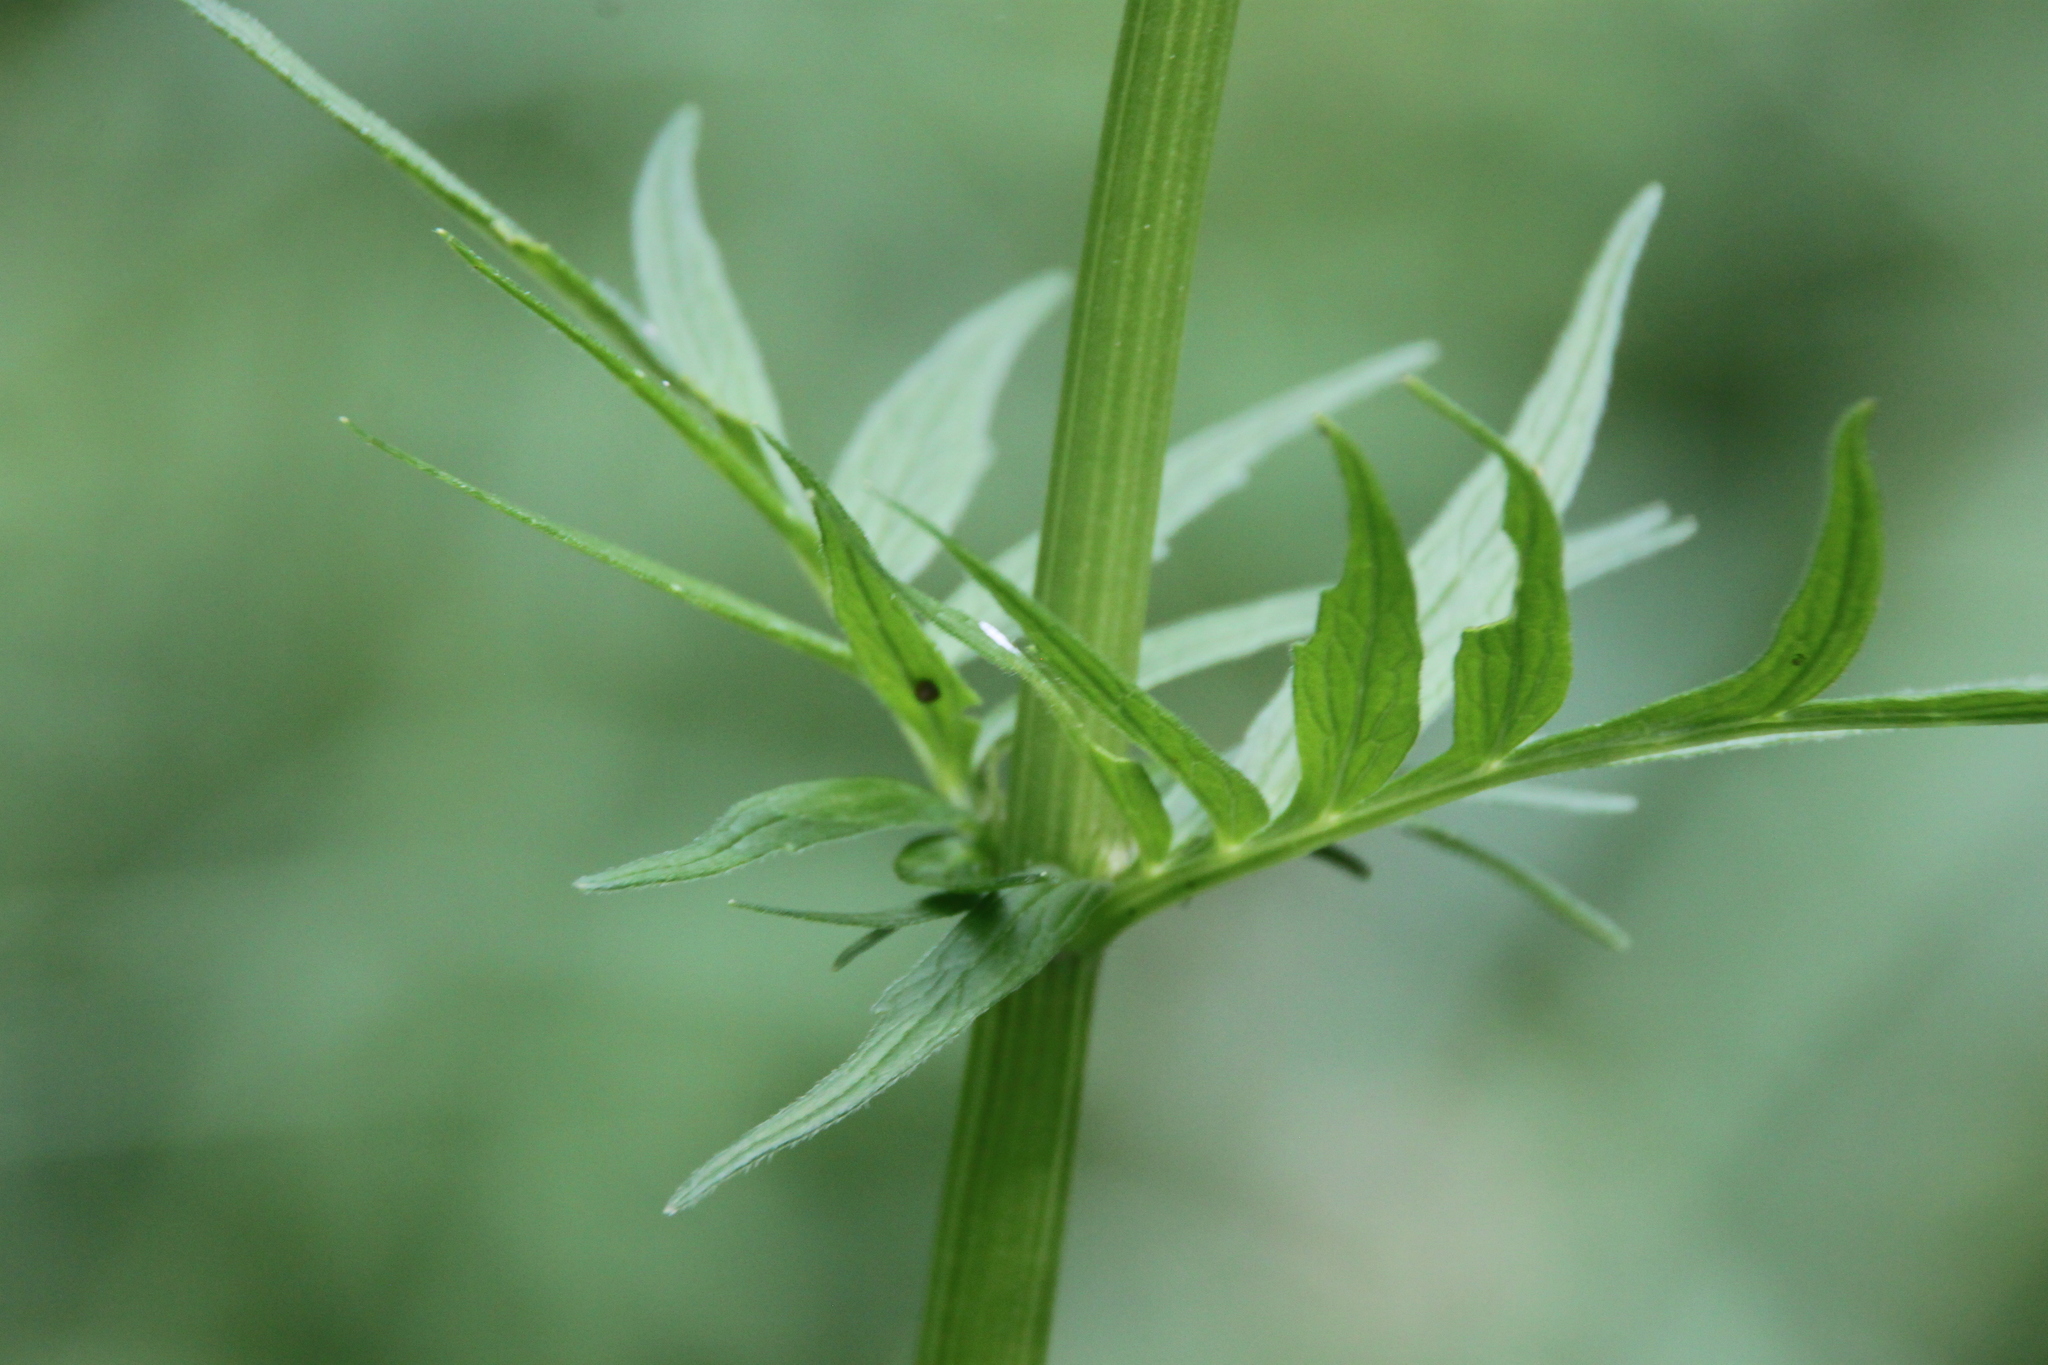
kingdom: Plantae
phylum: Tracheophyta
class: Magnoliopsida
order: Dipsacales
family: Caprifoliaceae
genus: Valeriana
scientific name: Valeriana officinalis
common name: Common valerian
